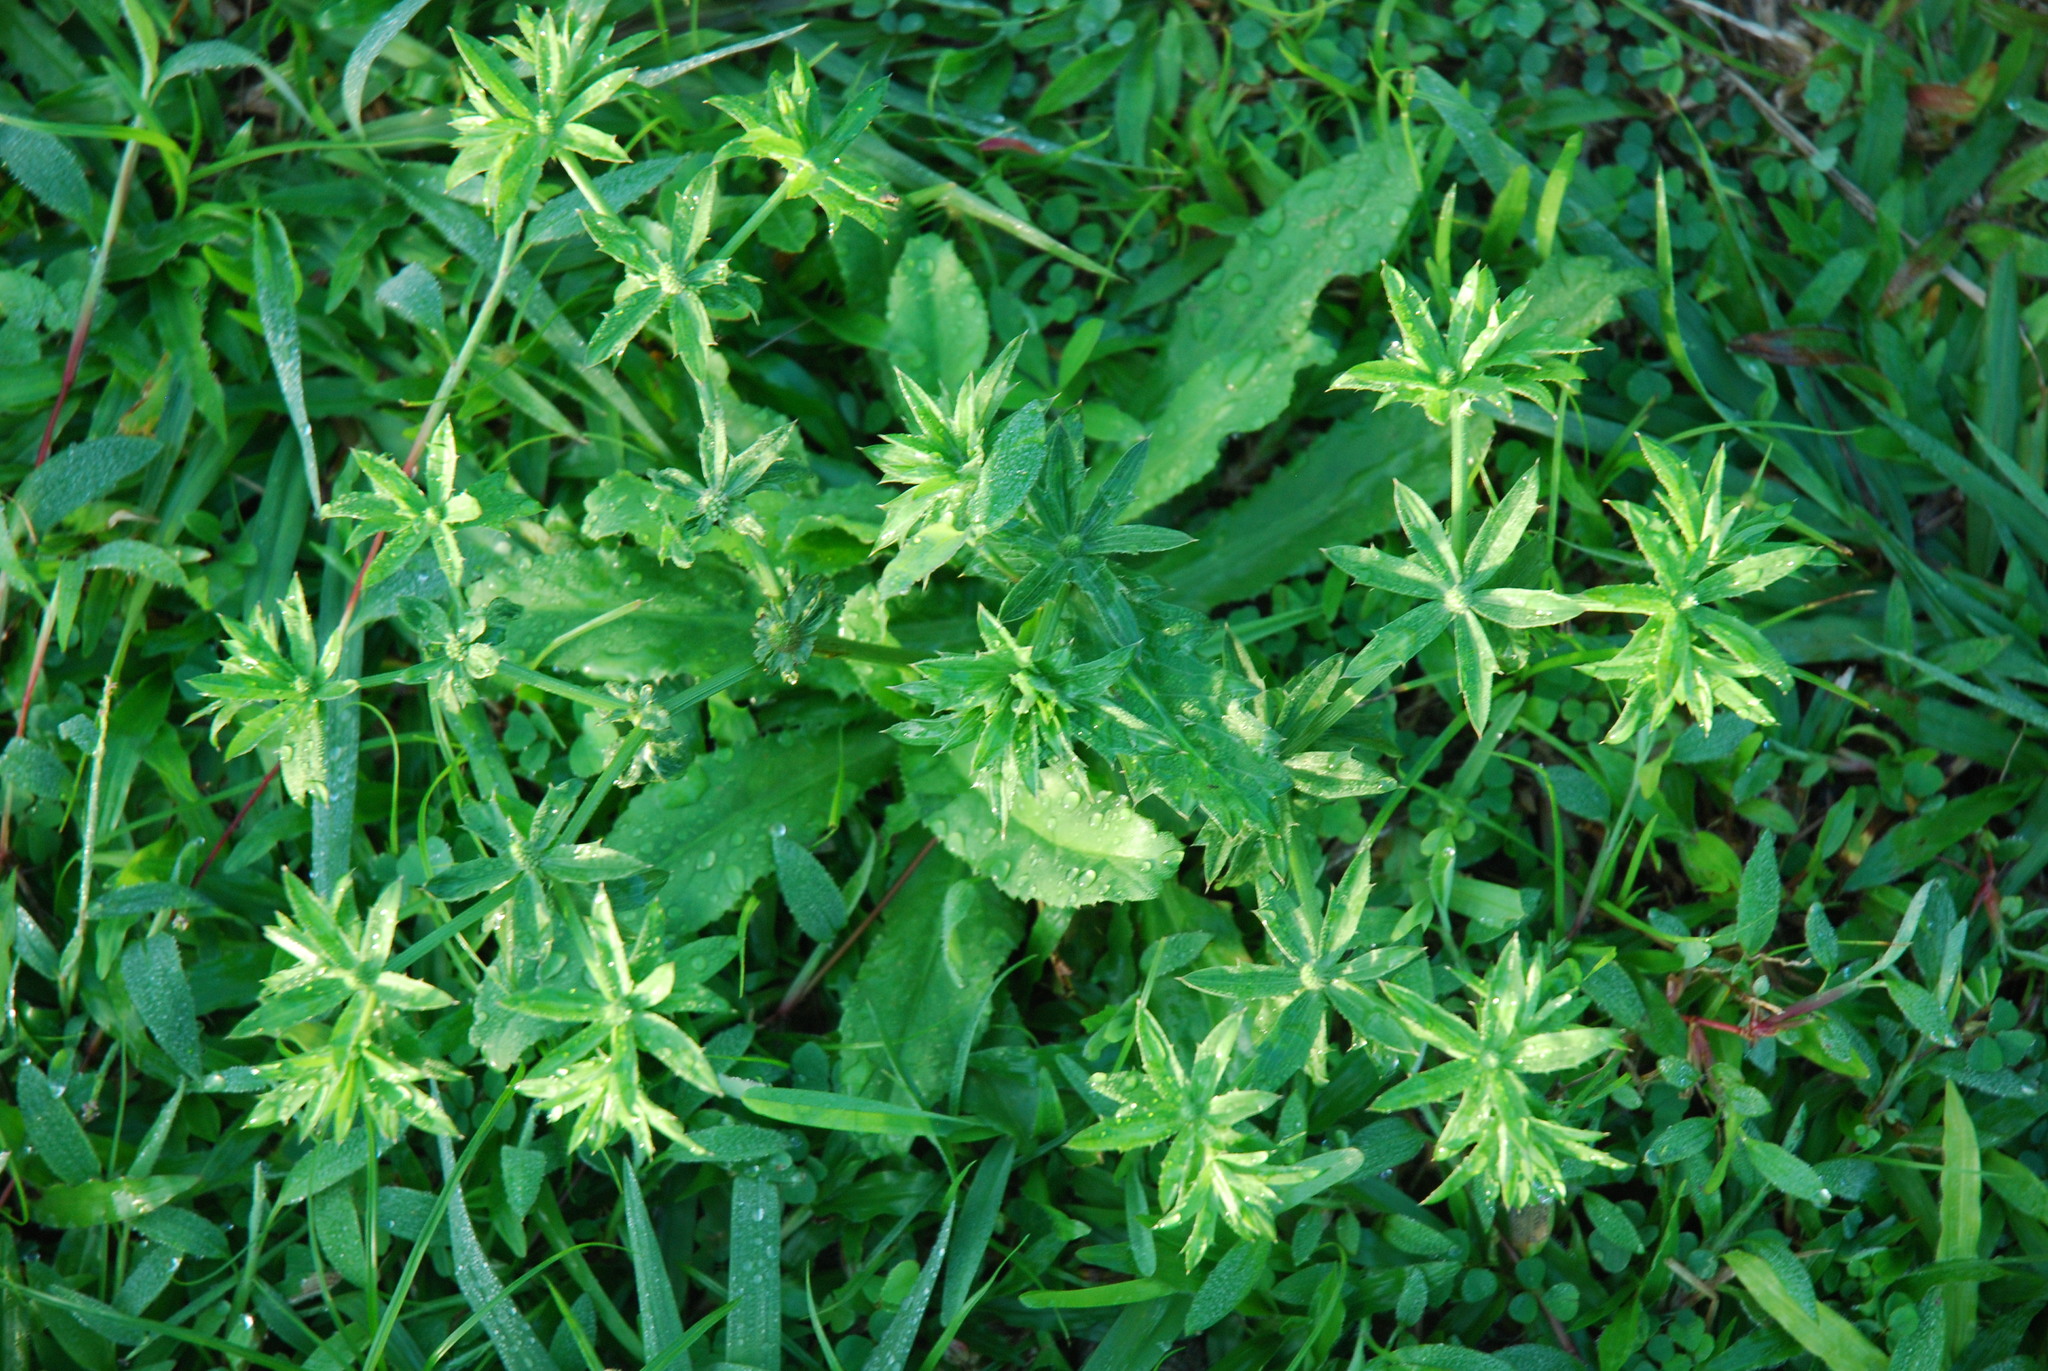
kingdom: Plantae
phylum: Tracheophyta
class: Magnoliopsida
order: Apiales
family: Apiaceae
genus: Eryngium
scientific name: Eryngium foetidum
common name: Fitweed
